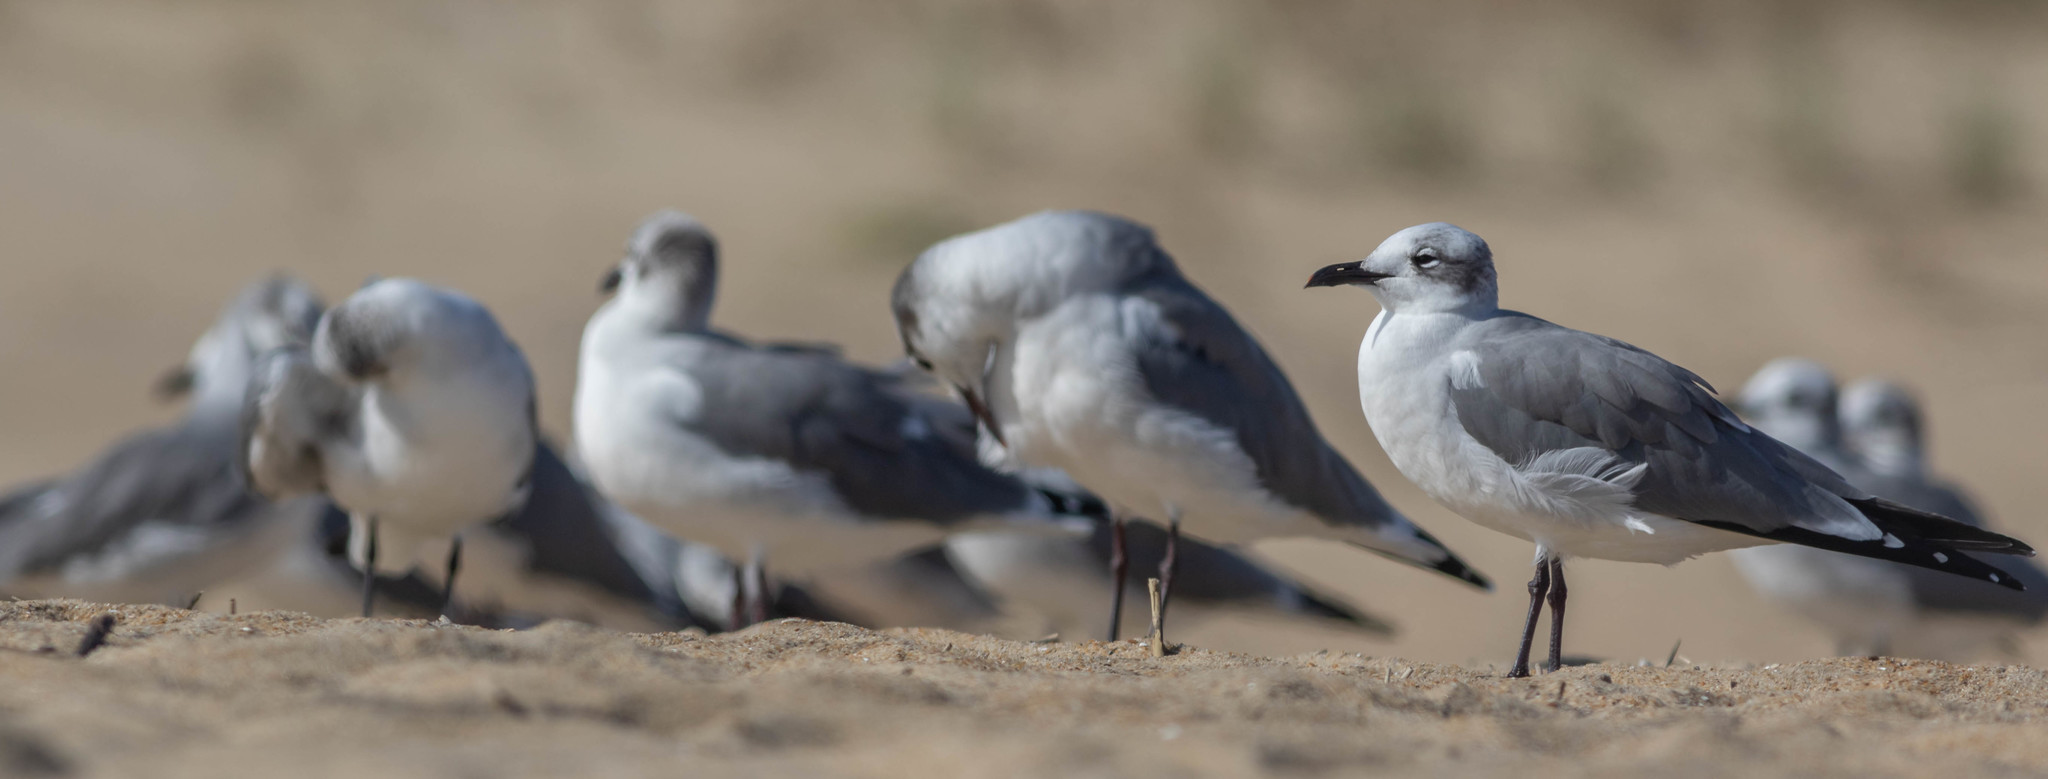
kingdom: Animalia
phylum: Chordata
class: Aves
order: Charadriiformes
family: Laridae
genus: Leucophaeus
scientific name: Leucophaeus atricilla
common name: Laughing gull
